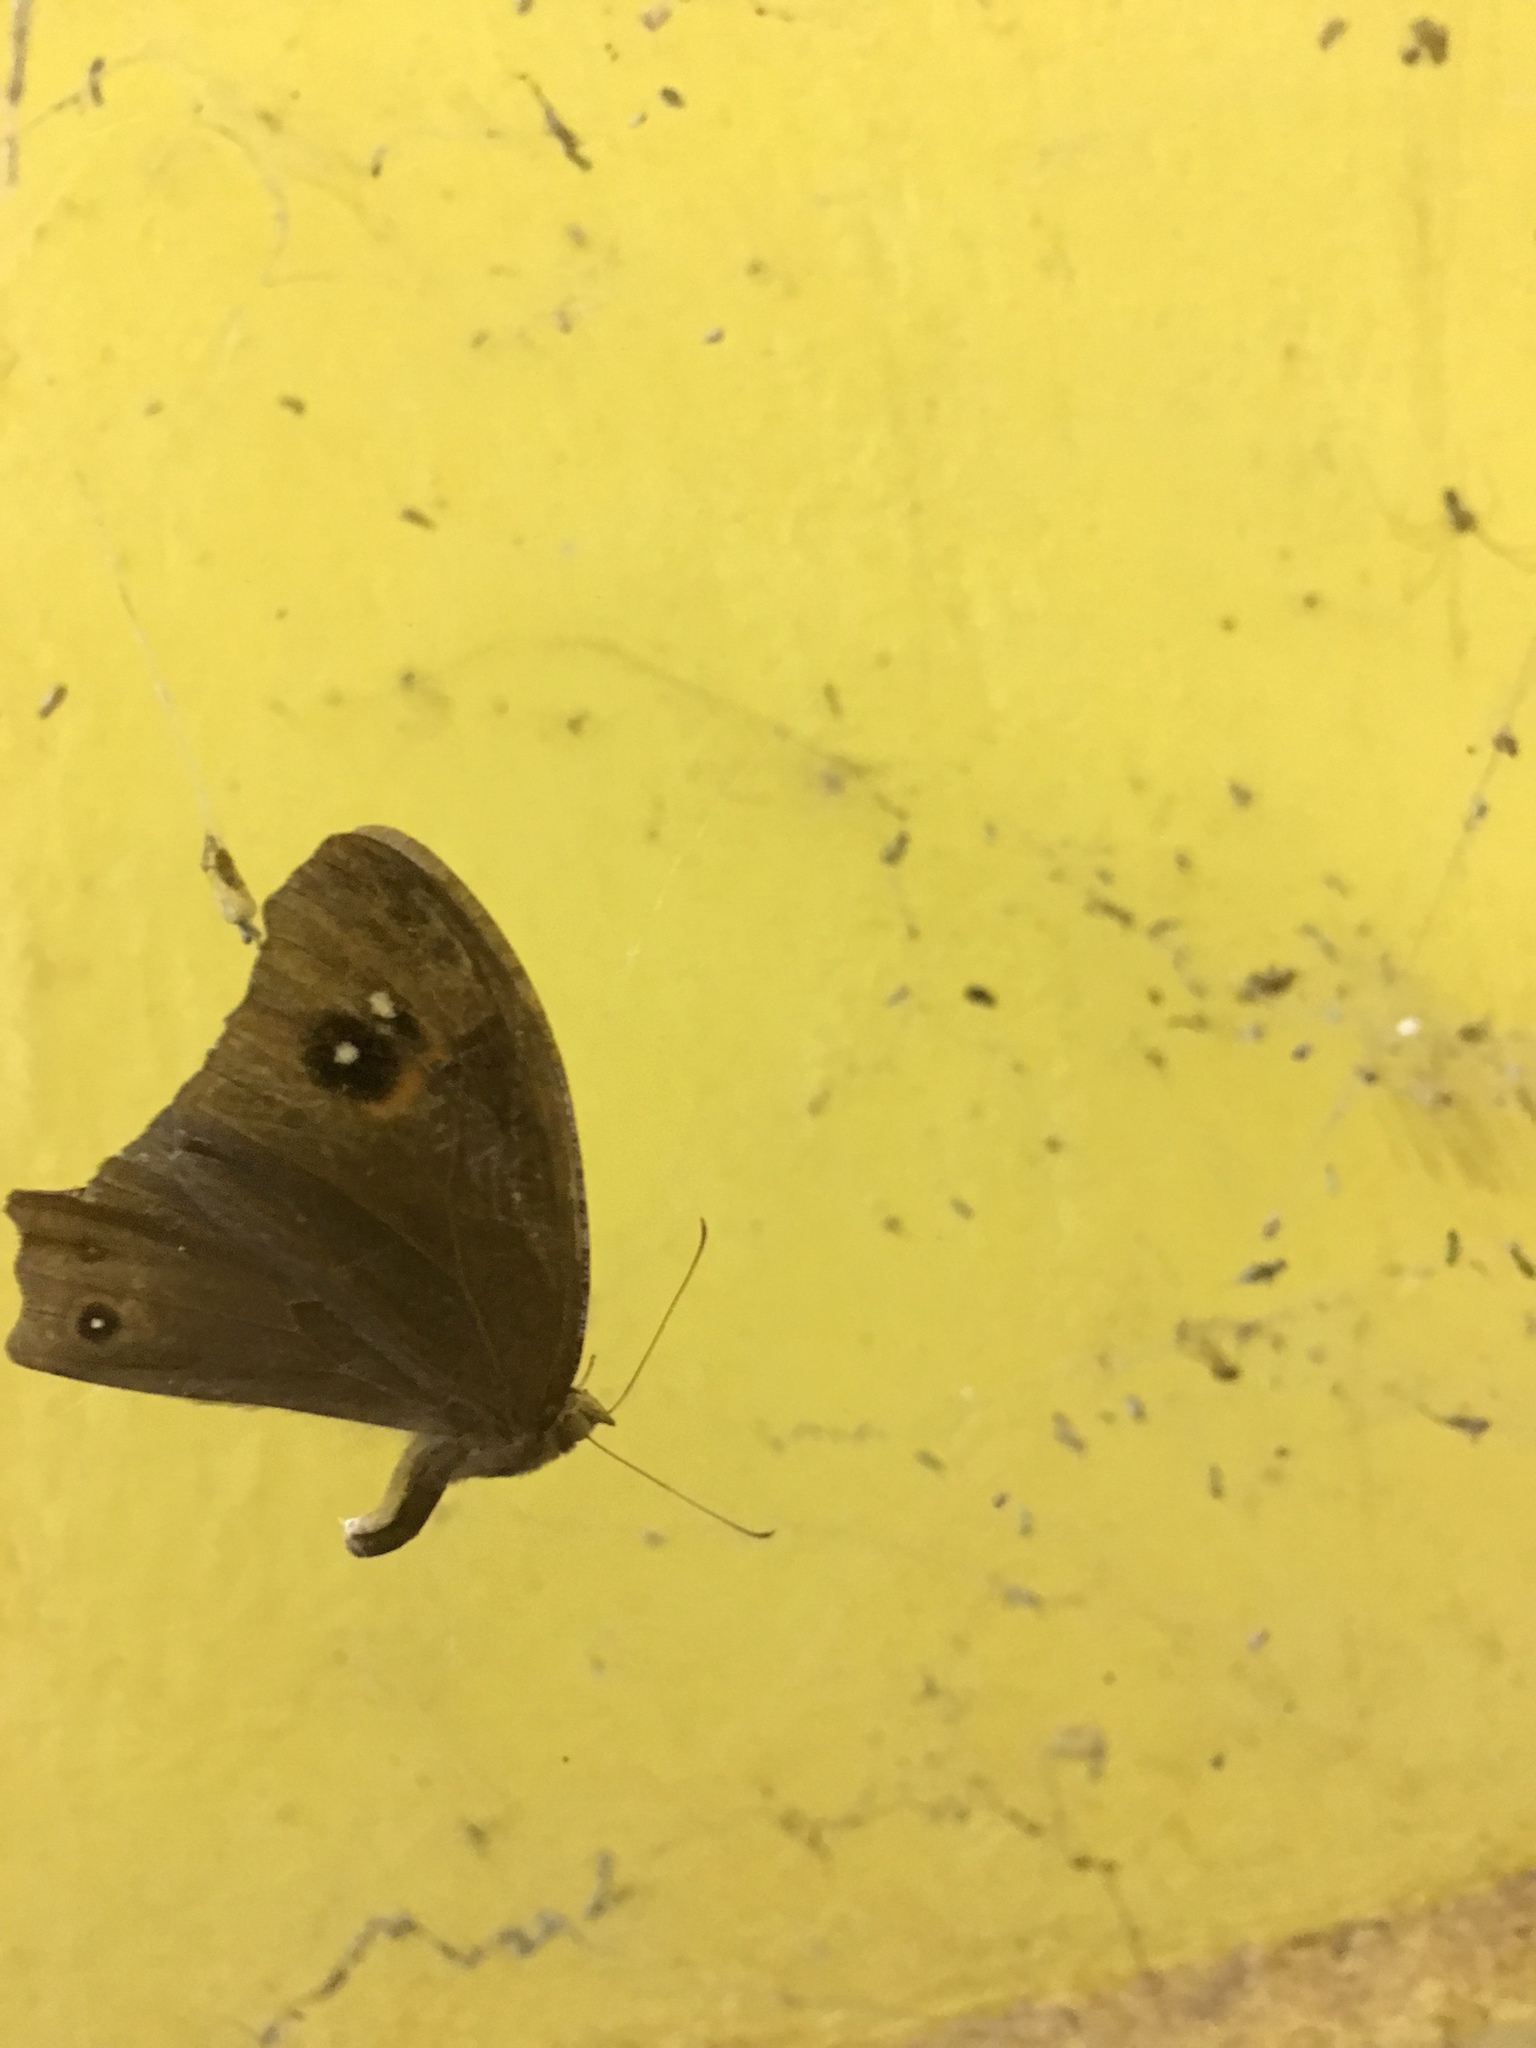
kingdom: Animalia
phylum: Arthropoda
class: Insecta
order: Lepidoptera
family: Nymphalidae
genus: Melanitis
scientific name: Melanitis leda
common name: Twilight brown
